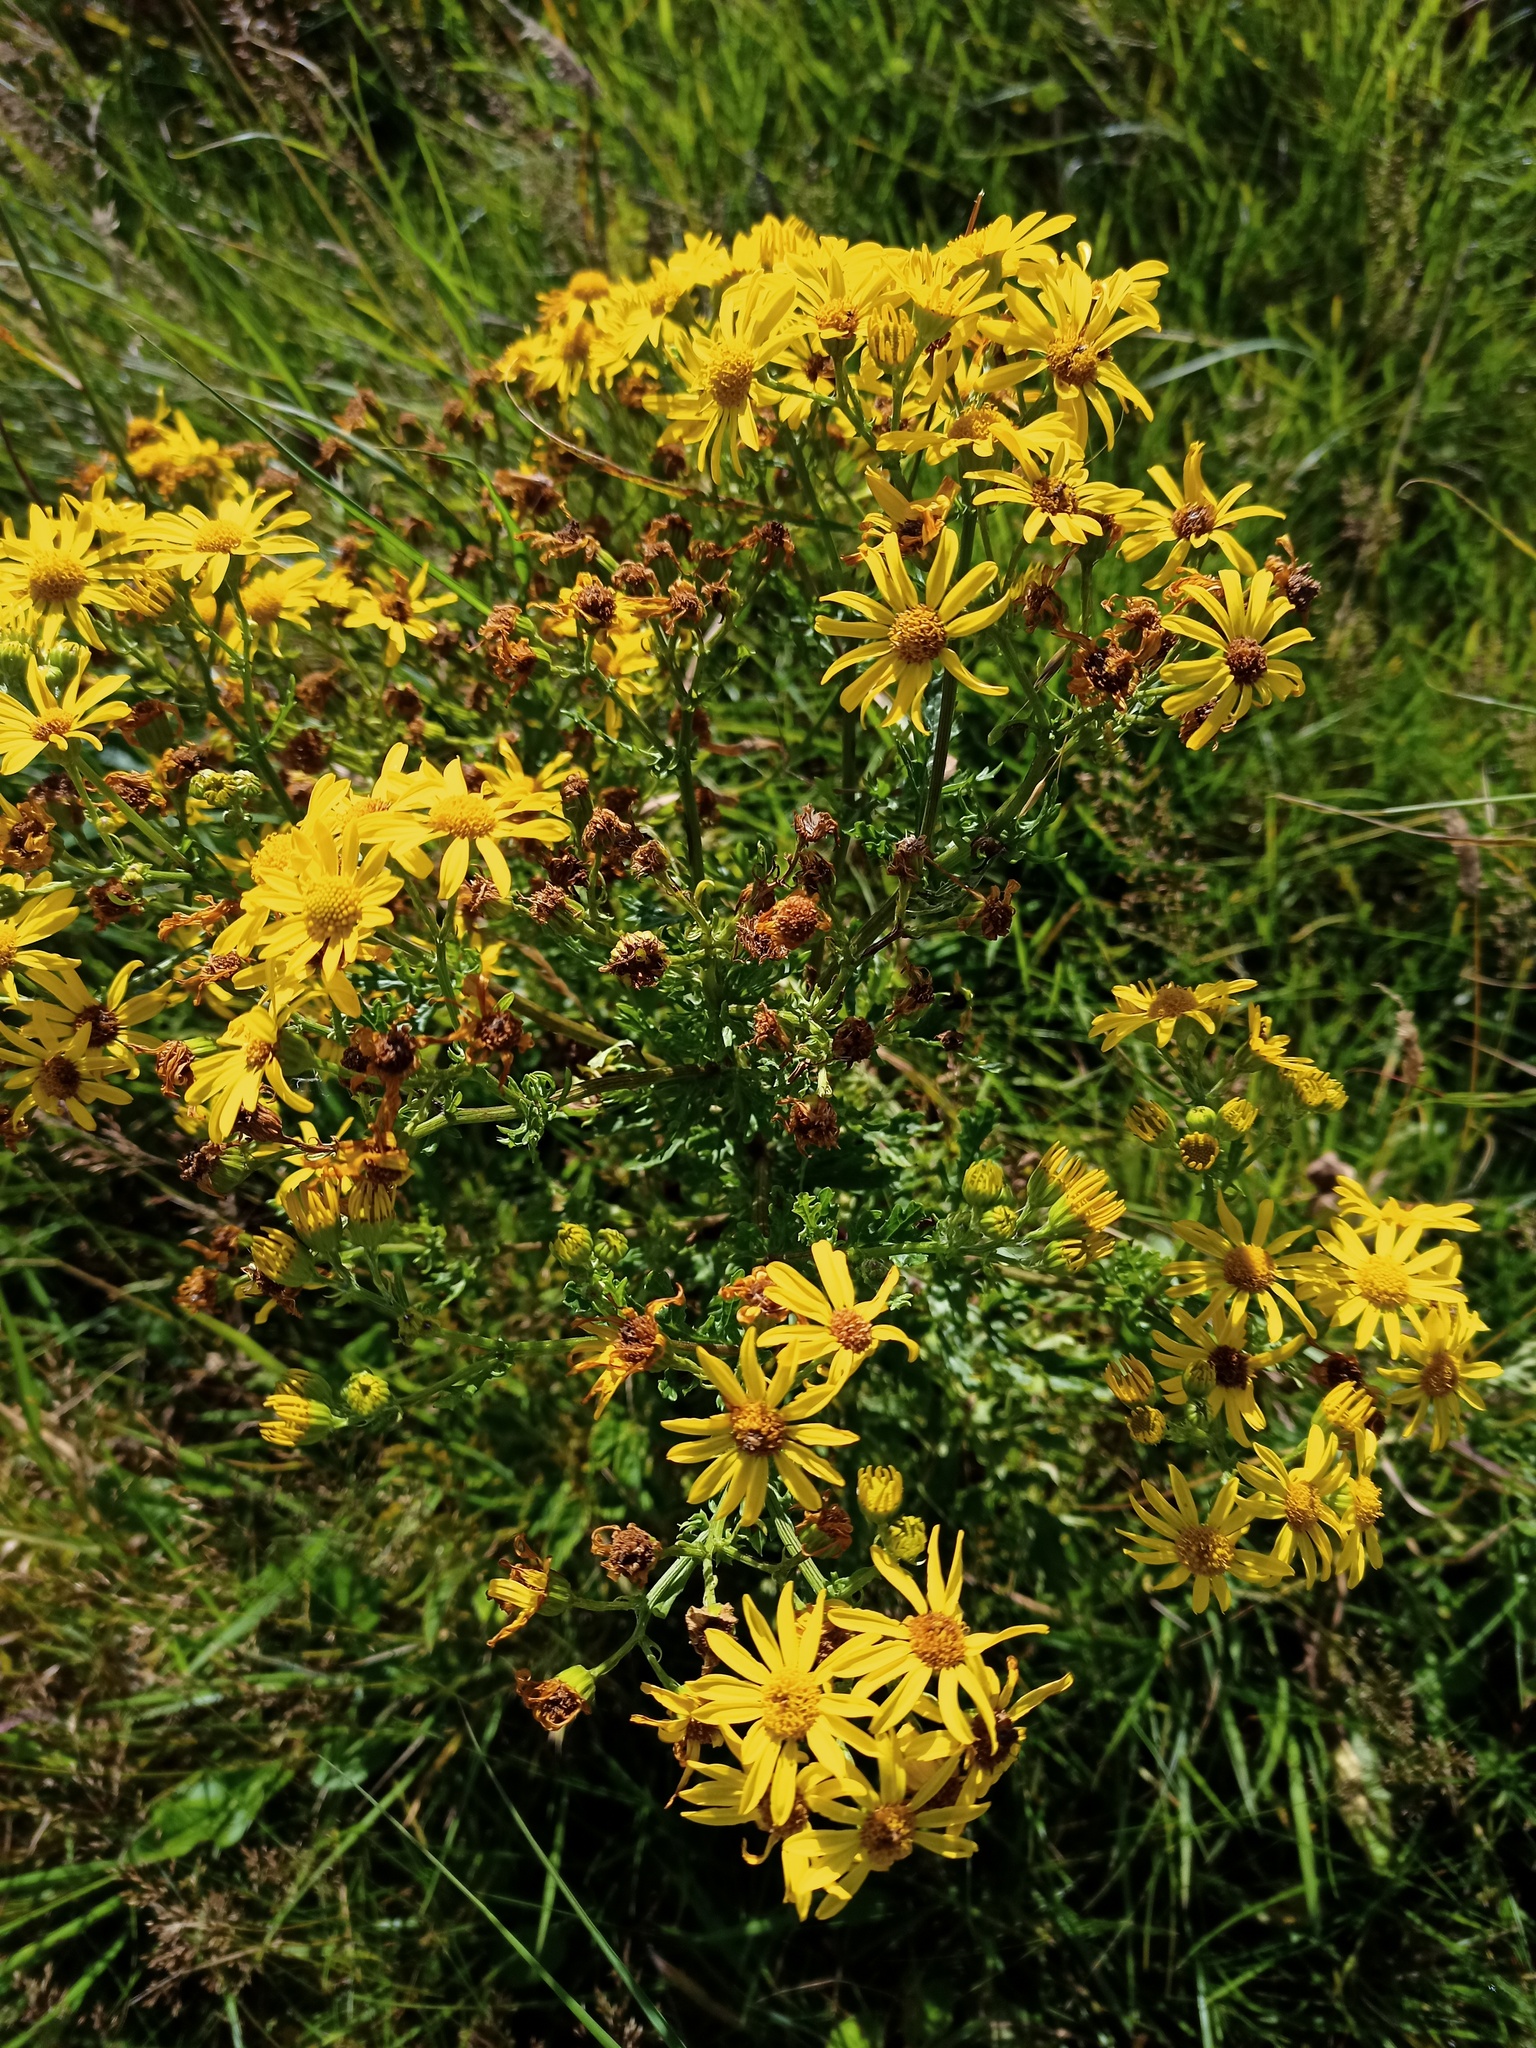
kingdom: Plantae
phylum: Tracheophyta
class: Magnoliopsida
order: Asterales
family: Asteraceae
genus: Jacobaea
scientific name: Jacobaea vulgaris
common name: Stinking willie
